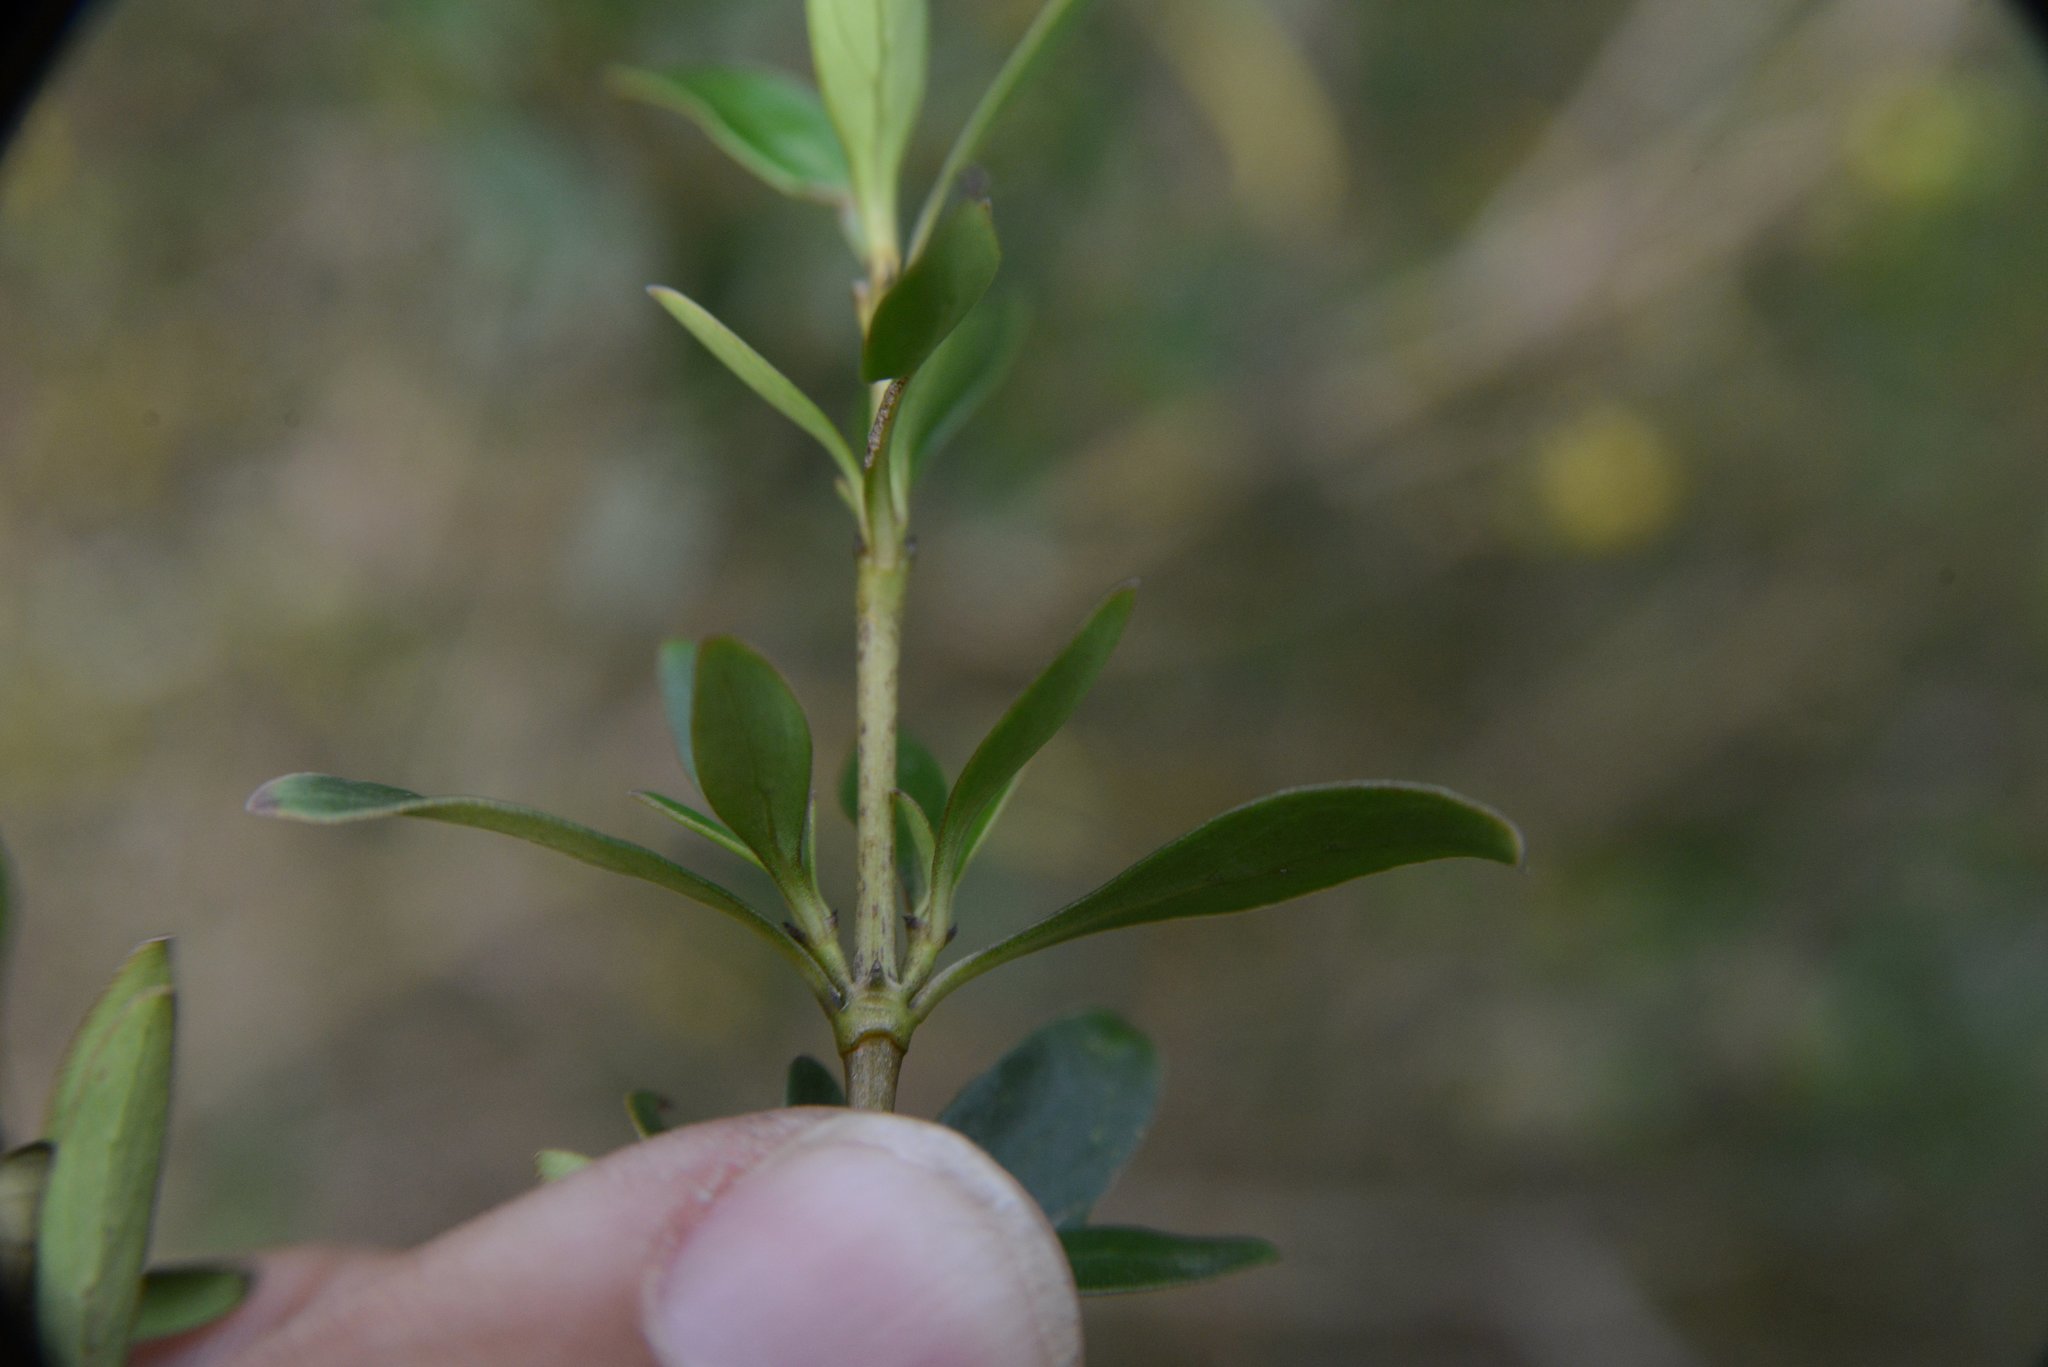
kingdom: Plantae
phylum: Tracheophyta
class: Magnoliopsida
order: Gentianales
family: Rubiaceae
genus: Coprosma
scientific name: Coprosma robusta
